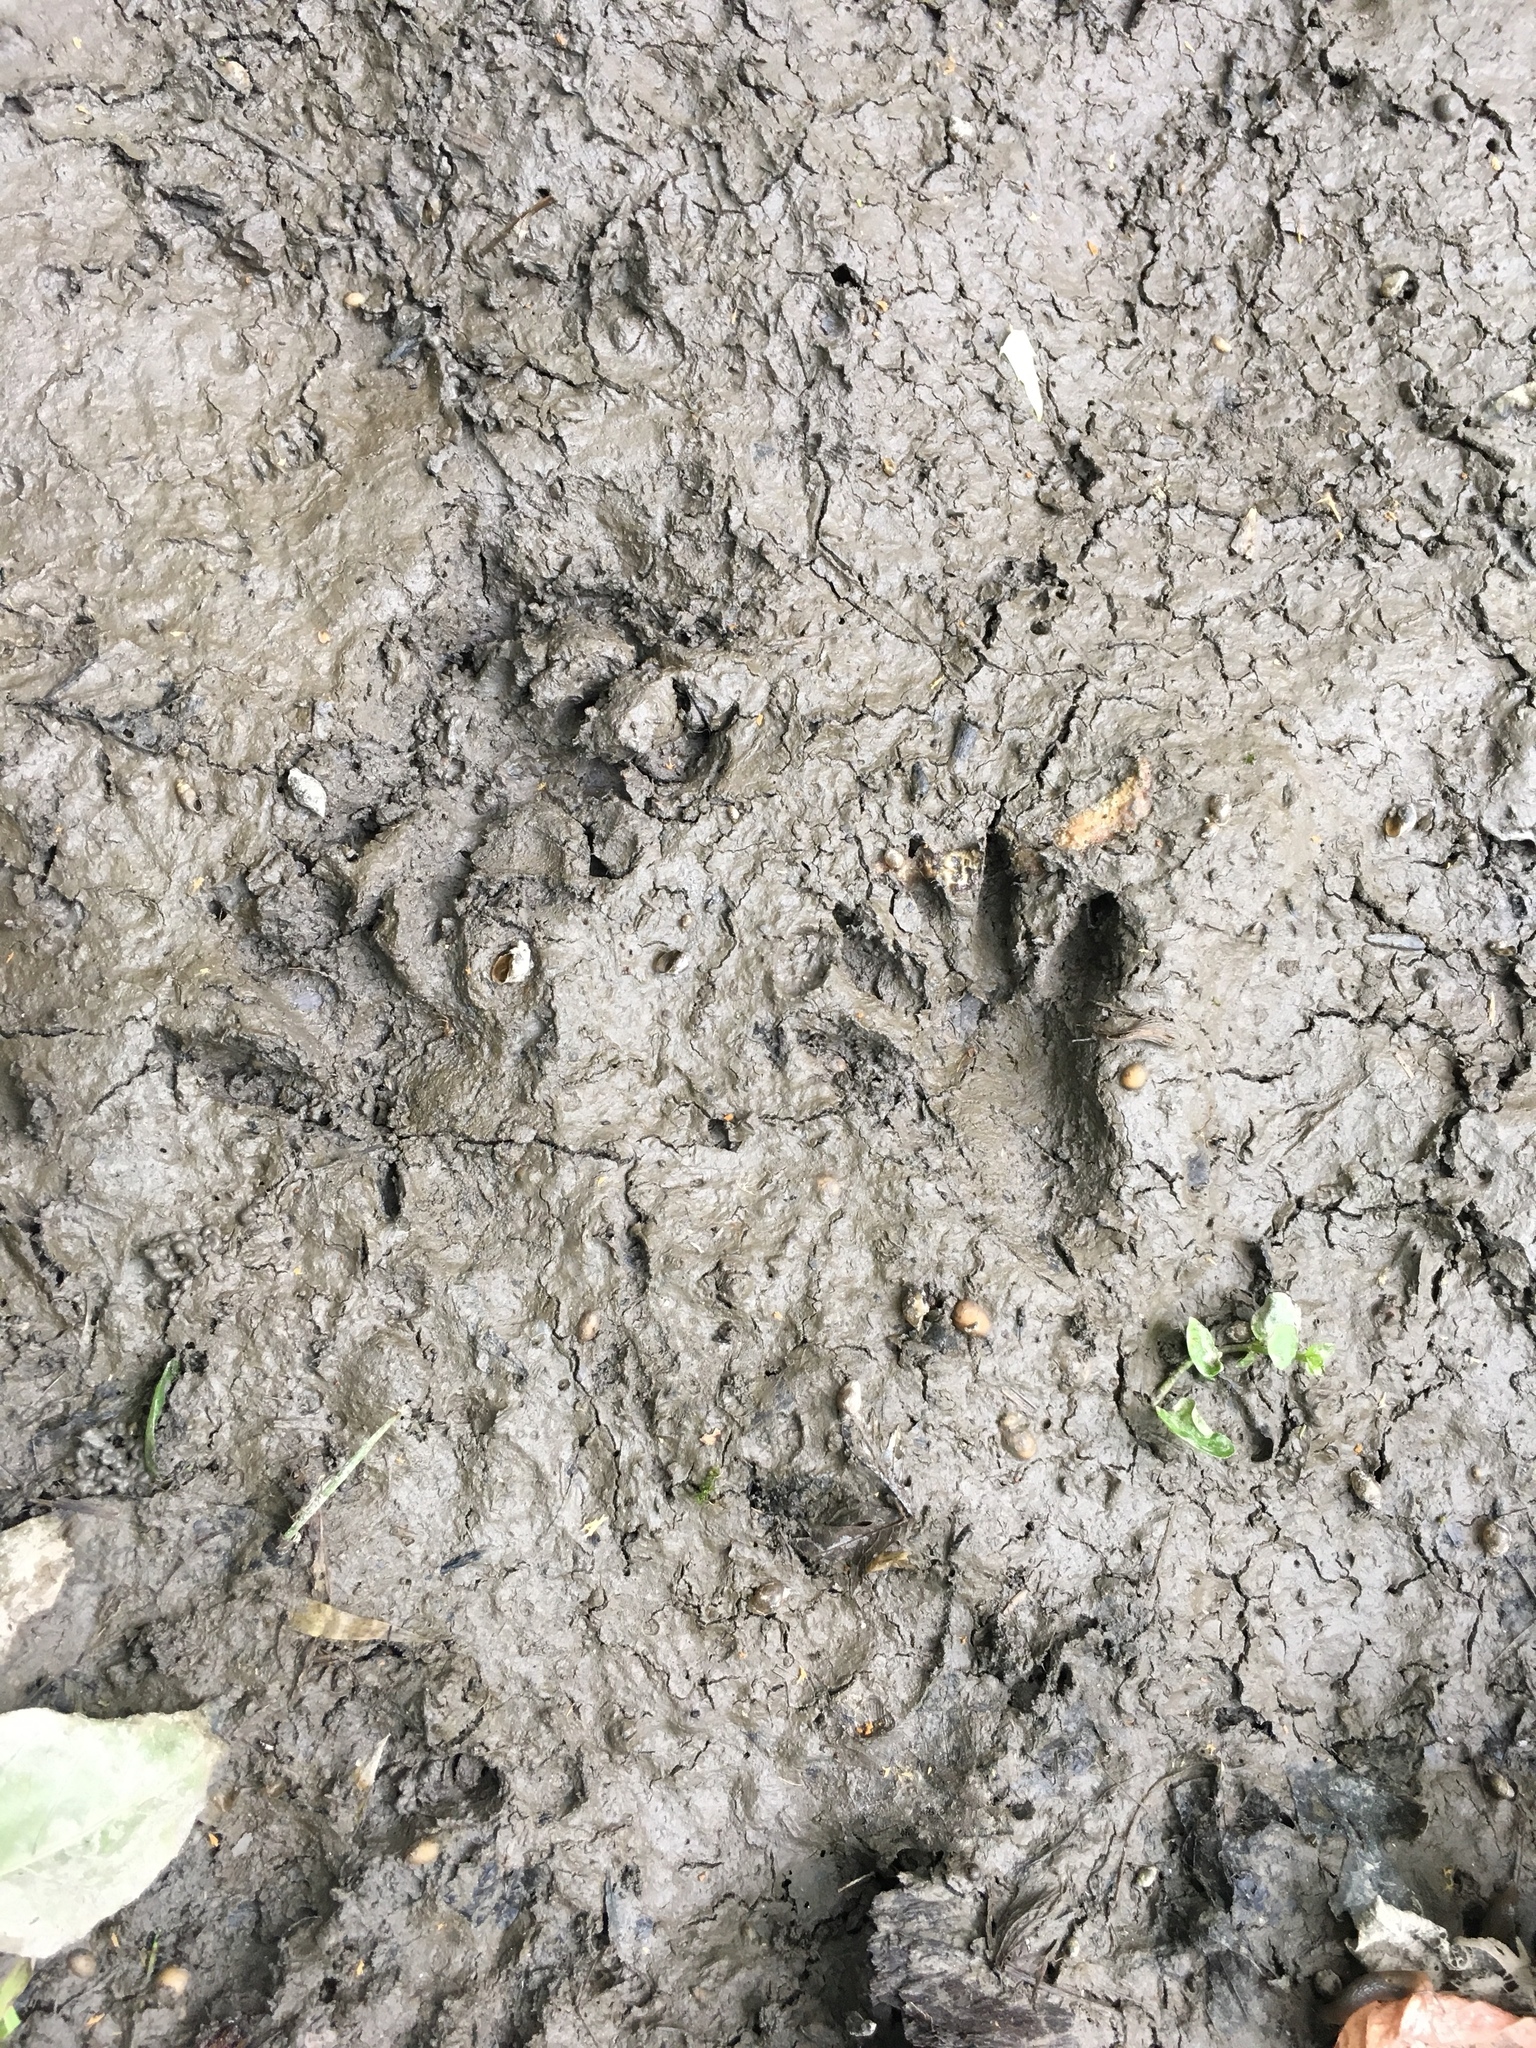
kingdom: Animalia
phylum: Chordata
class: Mammalia
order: Carnivora
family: Procyonidae
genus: Procyon
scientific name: Procyon lotor
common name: Raccoon
